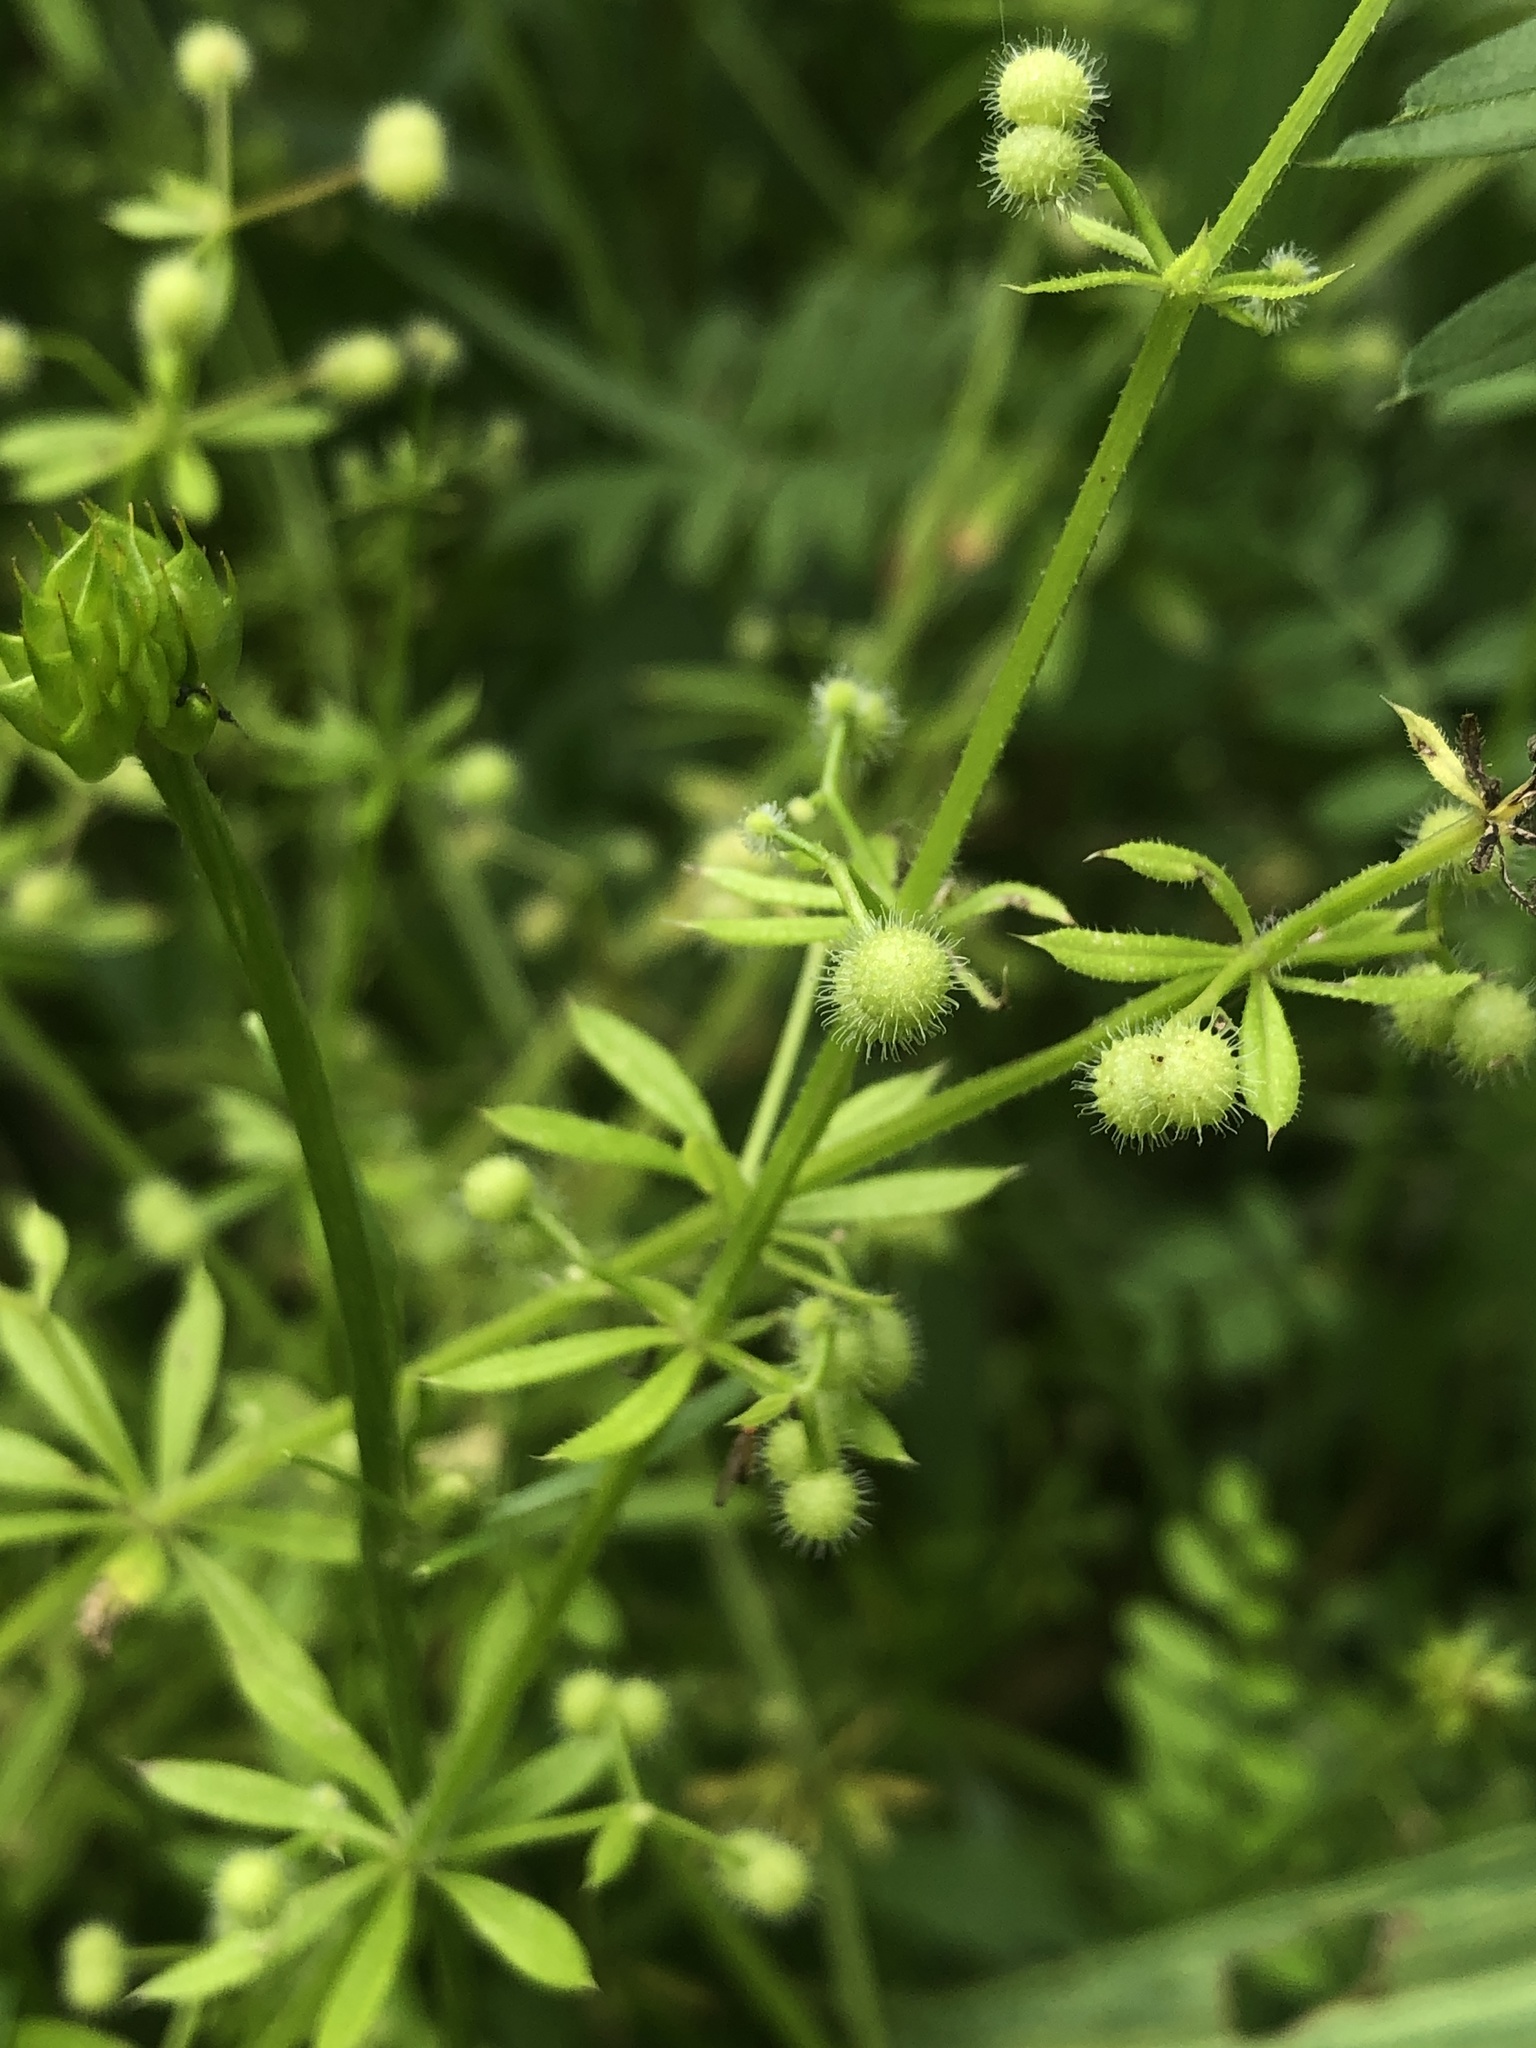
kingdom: Plantae
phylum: Tracheophyta
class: Magnoliopsida
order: Gentianales
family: Rubiaceae
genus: Galium
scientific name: Galium aparine
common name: Cleavers
